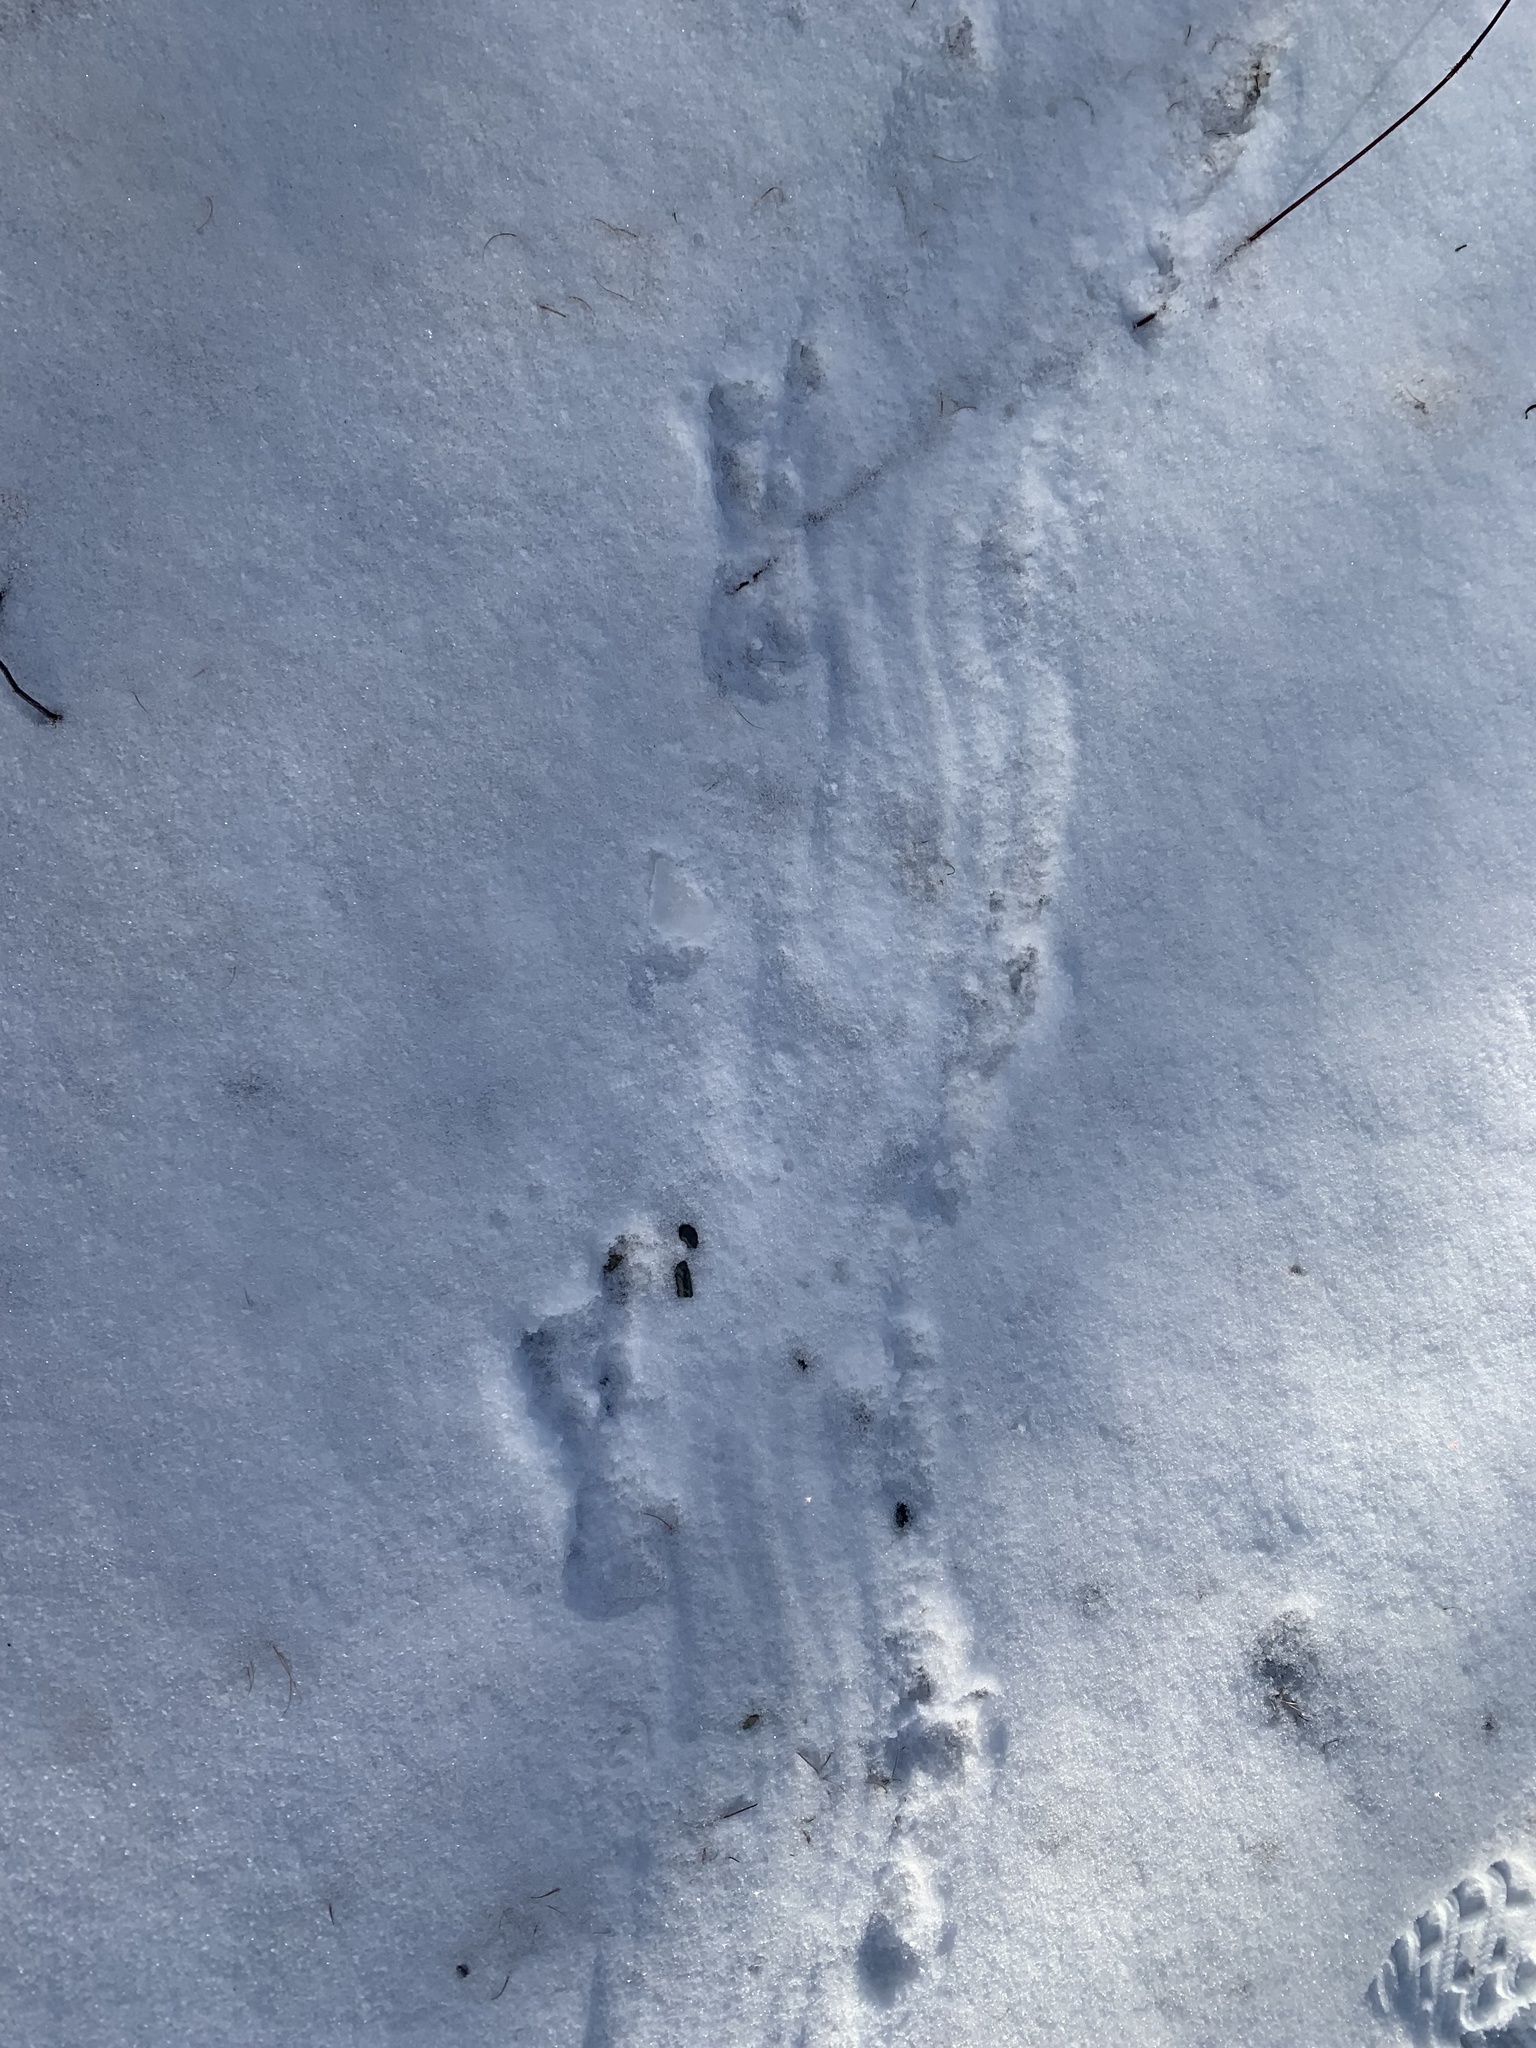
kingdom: Animalia
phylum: Chordata
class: Mammalia
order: Rodentia
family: Castoridae
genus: Castor
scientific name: Castor canadensis
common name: American beaver
